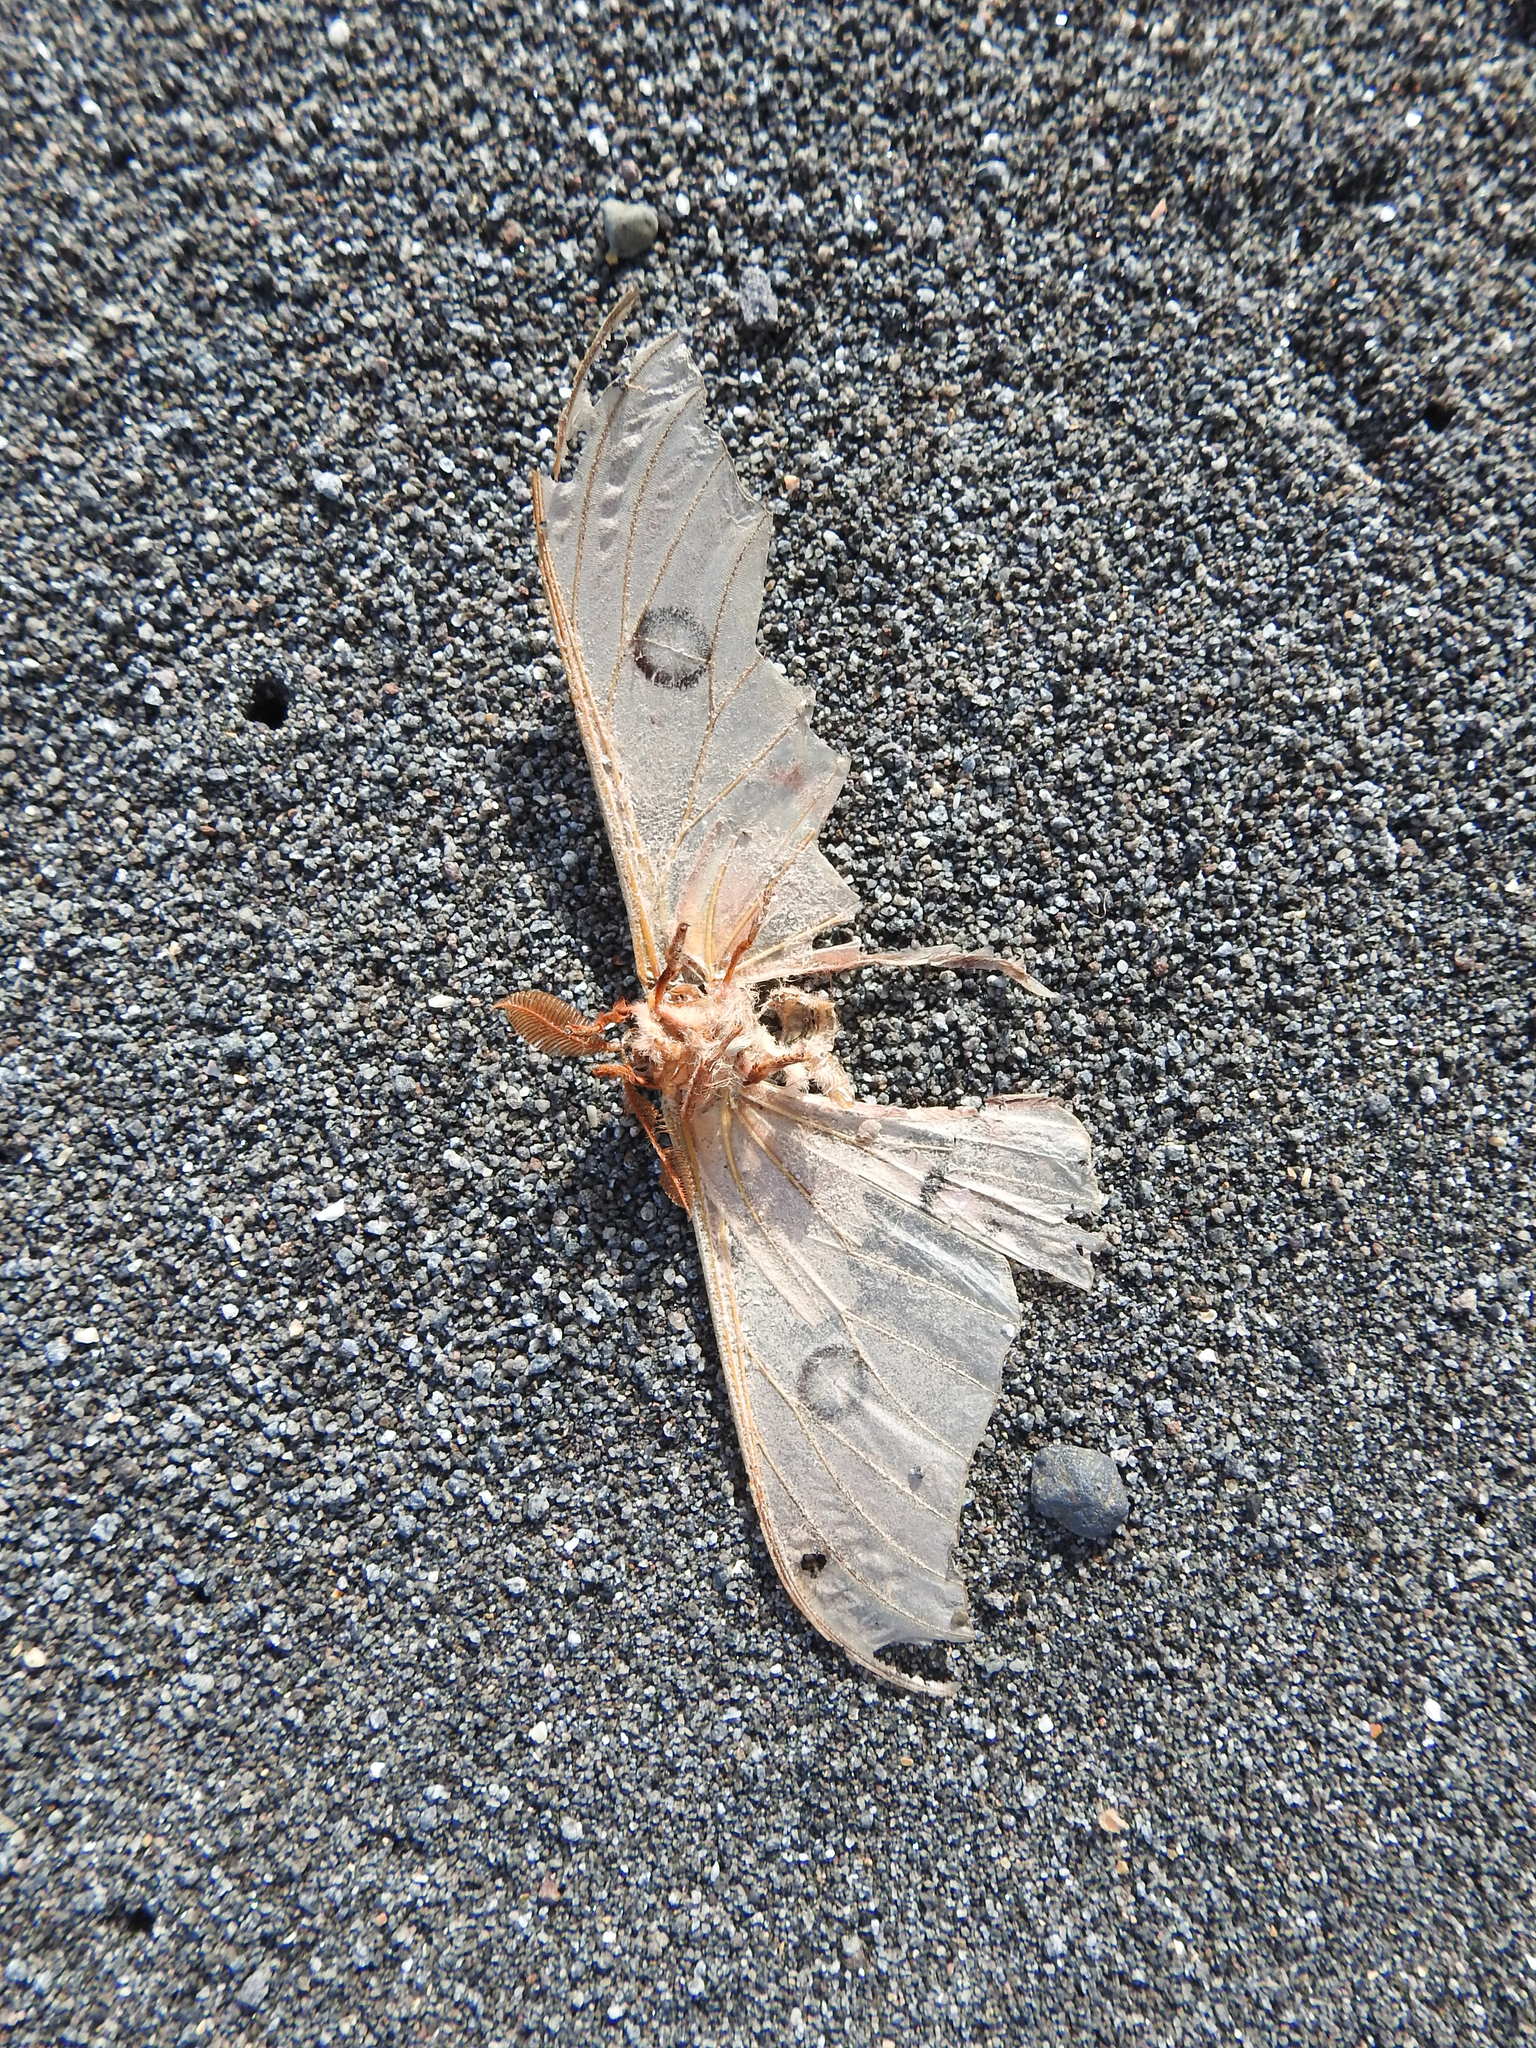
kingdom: Animalia
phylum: Arthropoda
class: Insecta
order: Lepidoptera
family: Saturniidae
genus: Opodiphthera
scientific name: Opodiphthera
